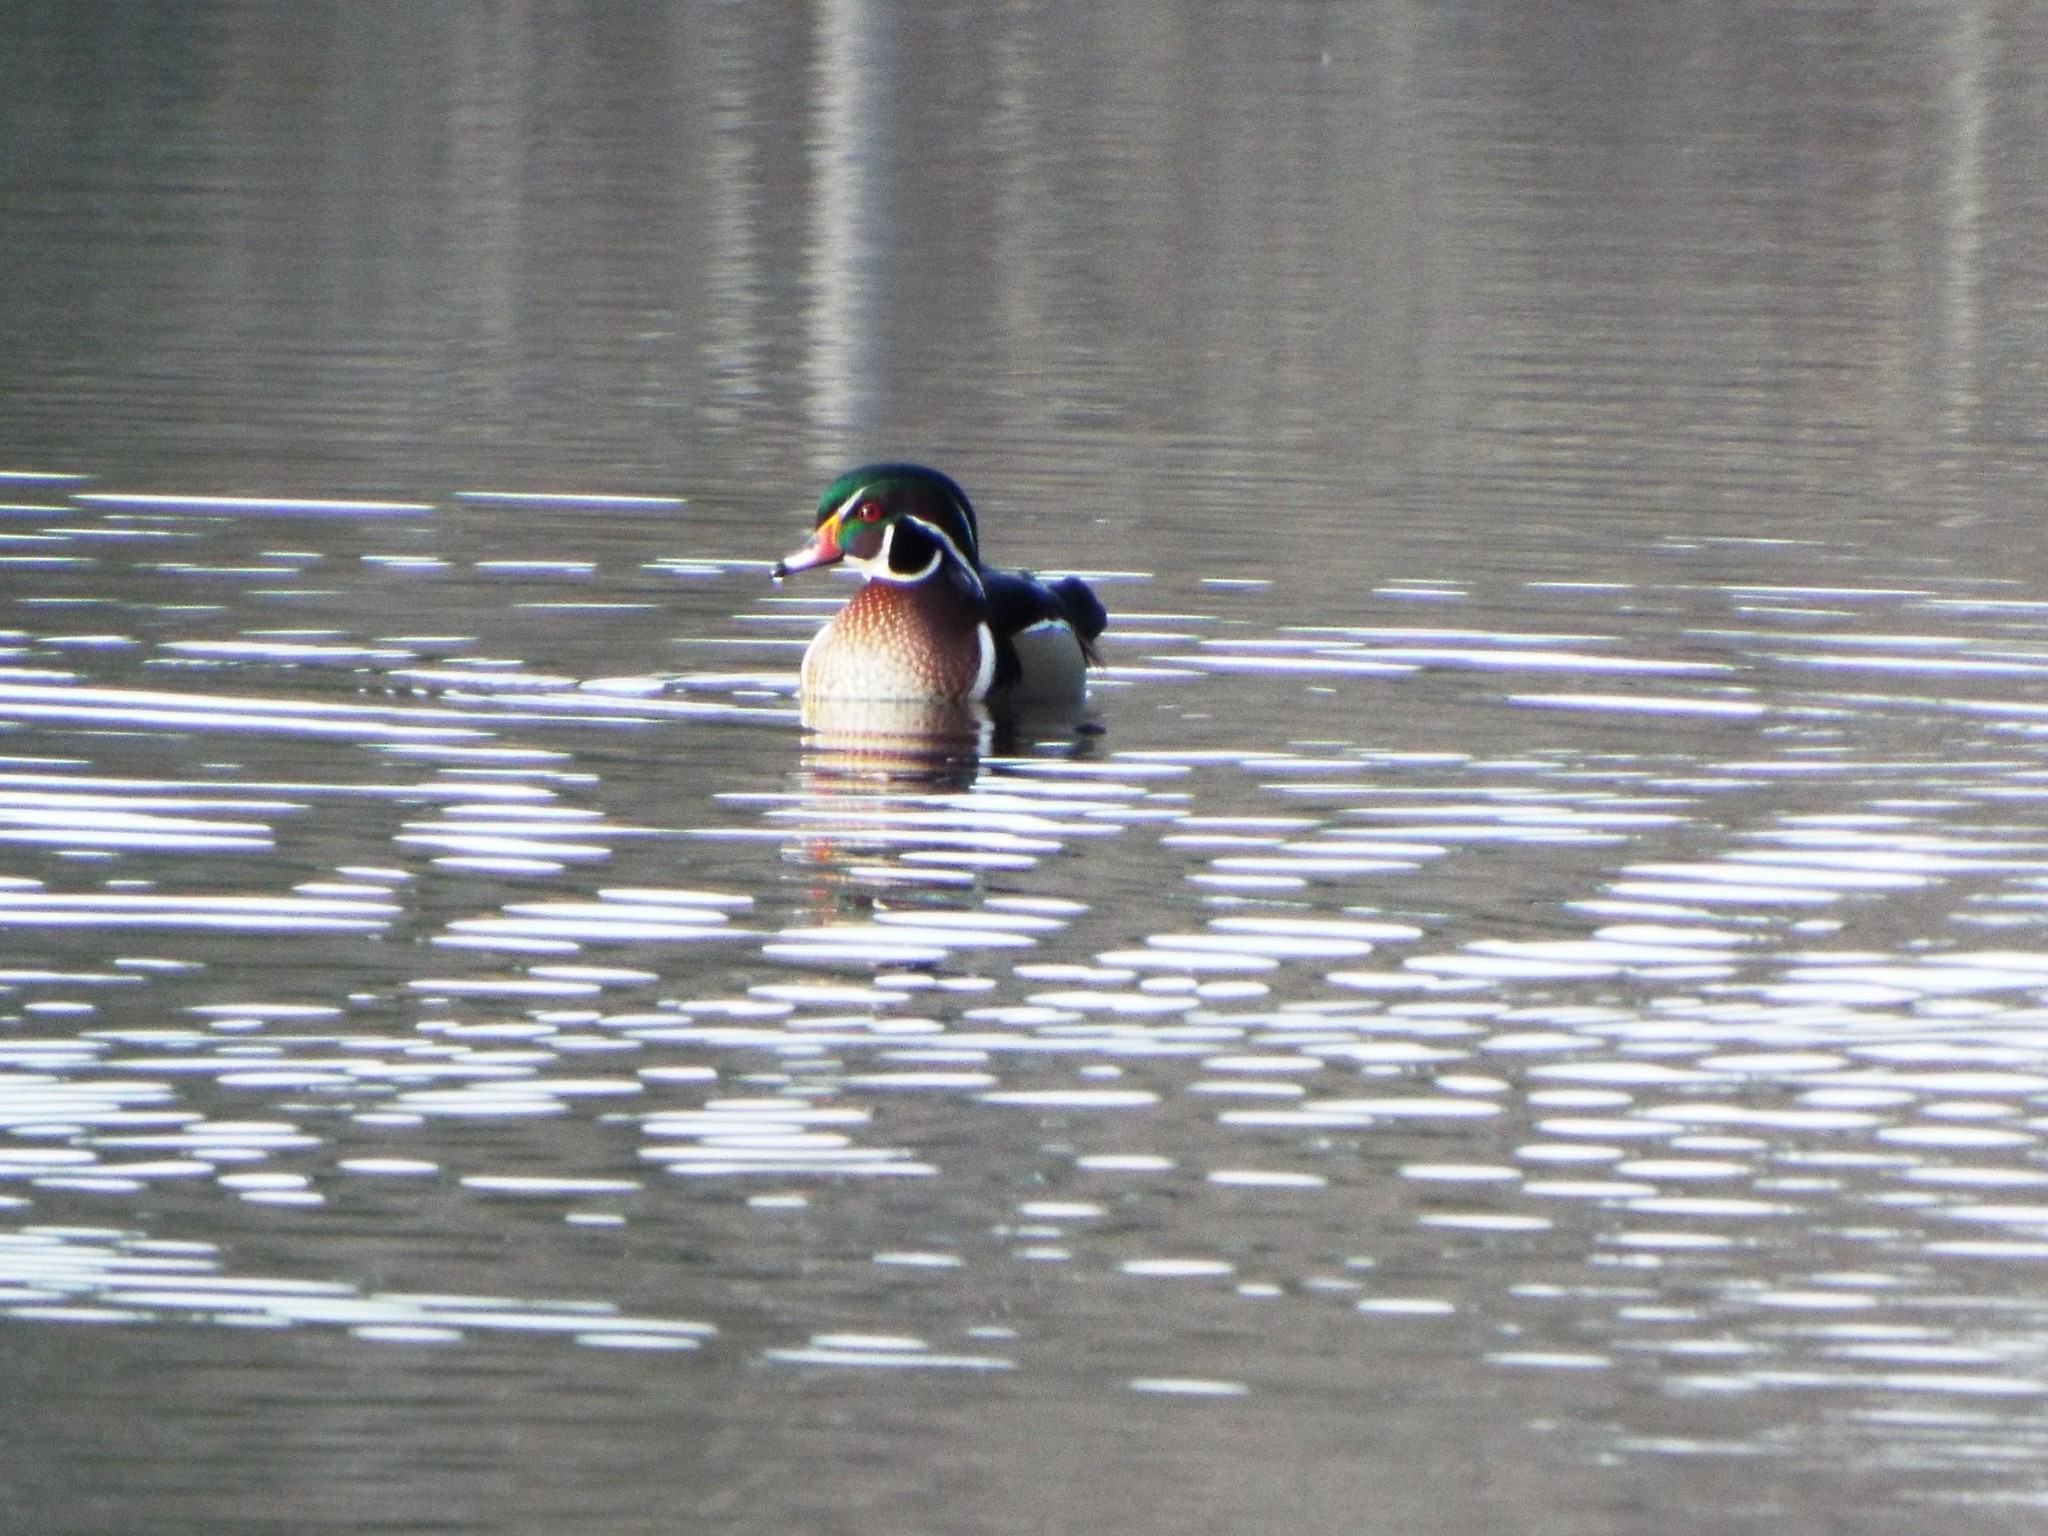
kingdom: Animalia
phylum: Chordata
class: Aves
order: Anseriformes
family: Anatidae
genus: Aix
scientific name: Aix sponsa
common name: Wood duck
